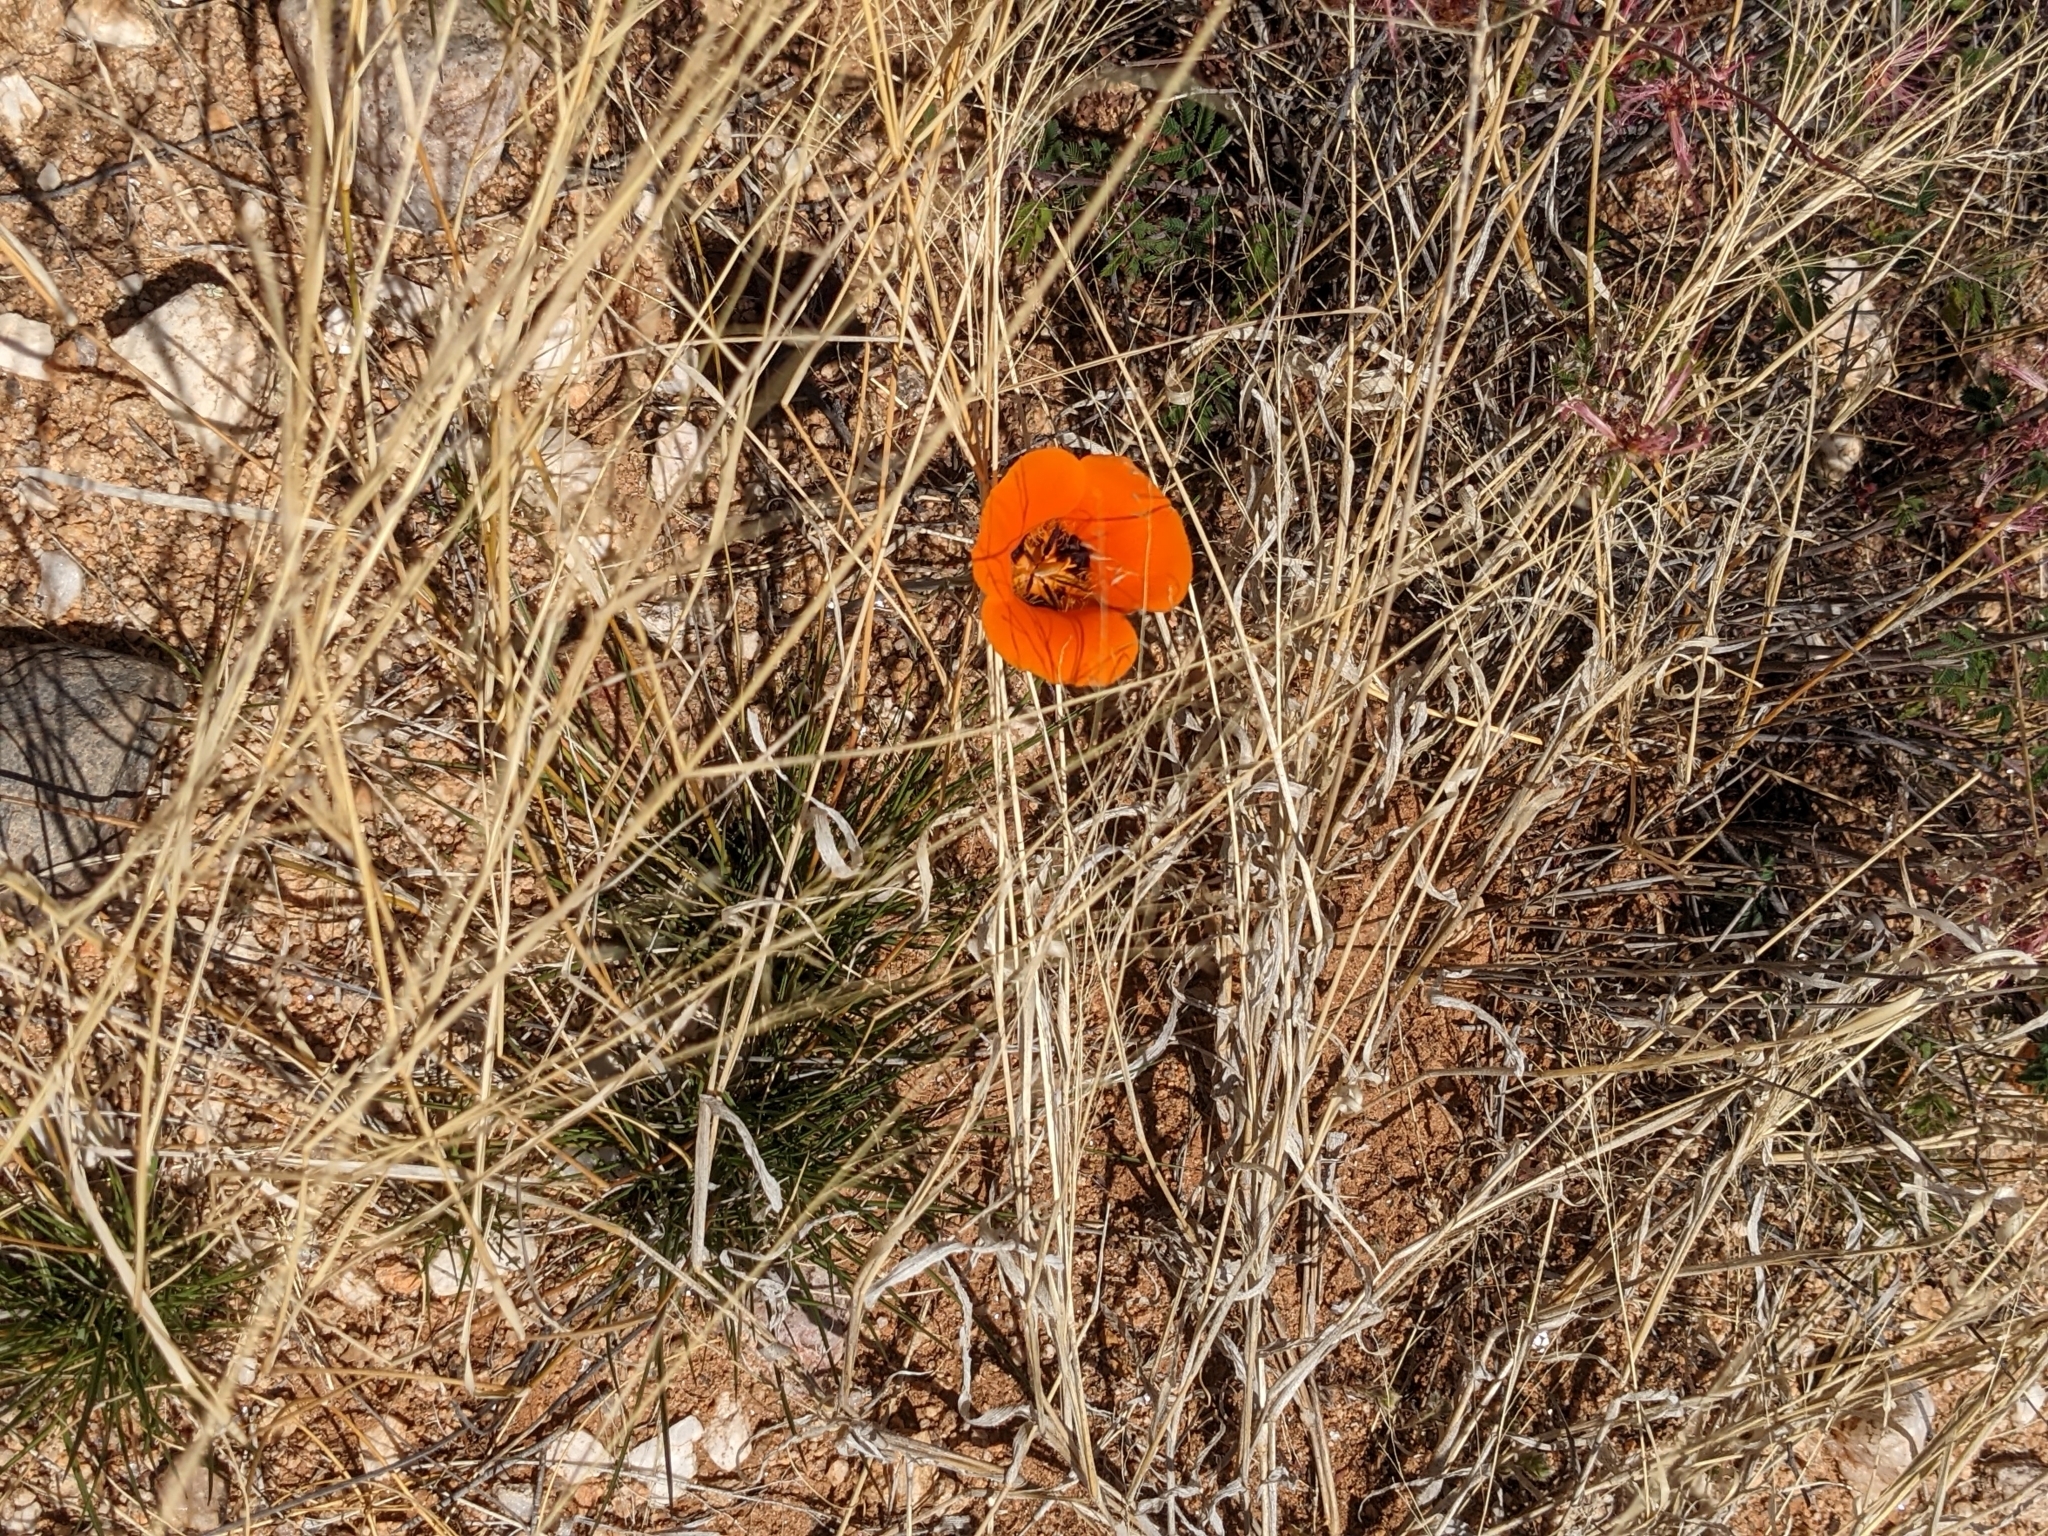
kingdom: Plantae
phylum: Tracheophyta
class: Liliopsida
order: Liliales
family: Liliaceae
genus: Calochortus
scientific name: Calochortus kennedyi
